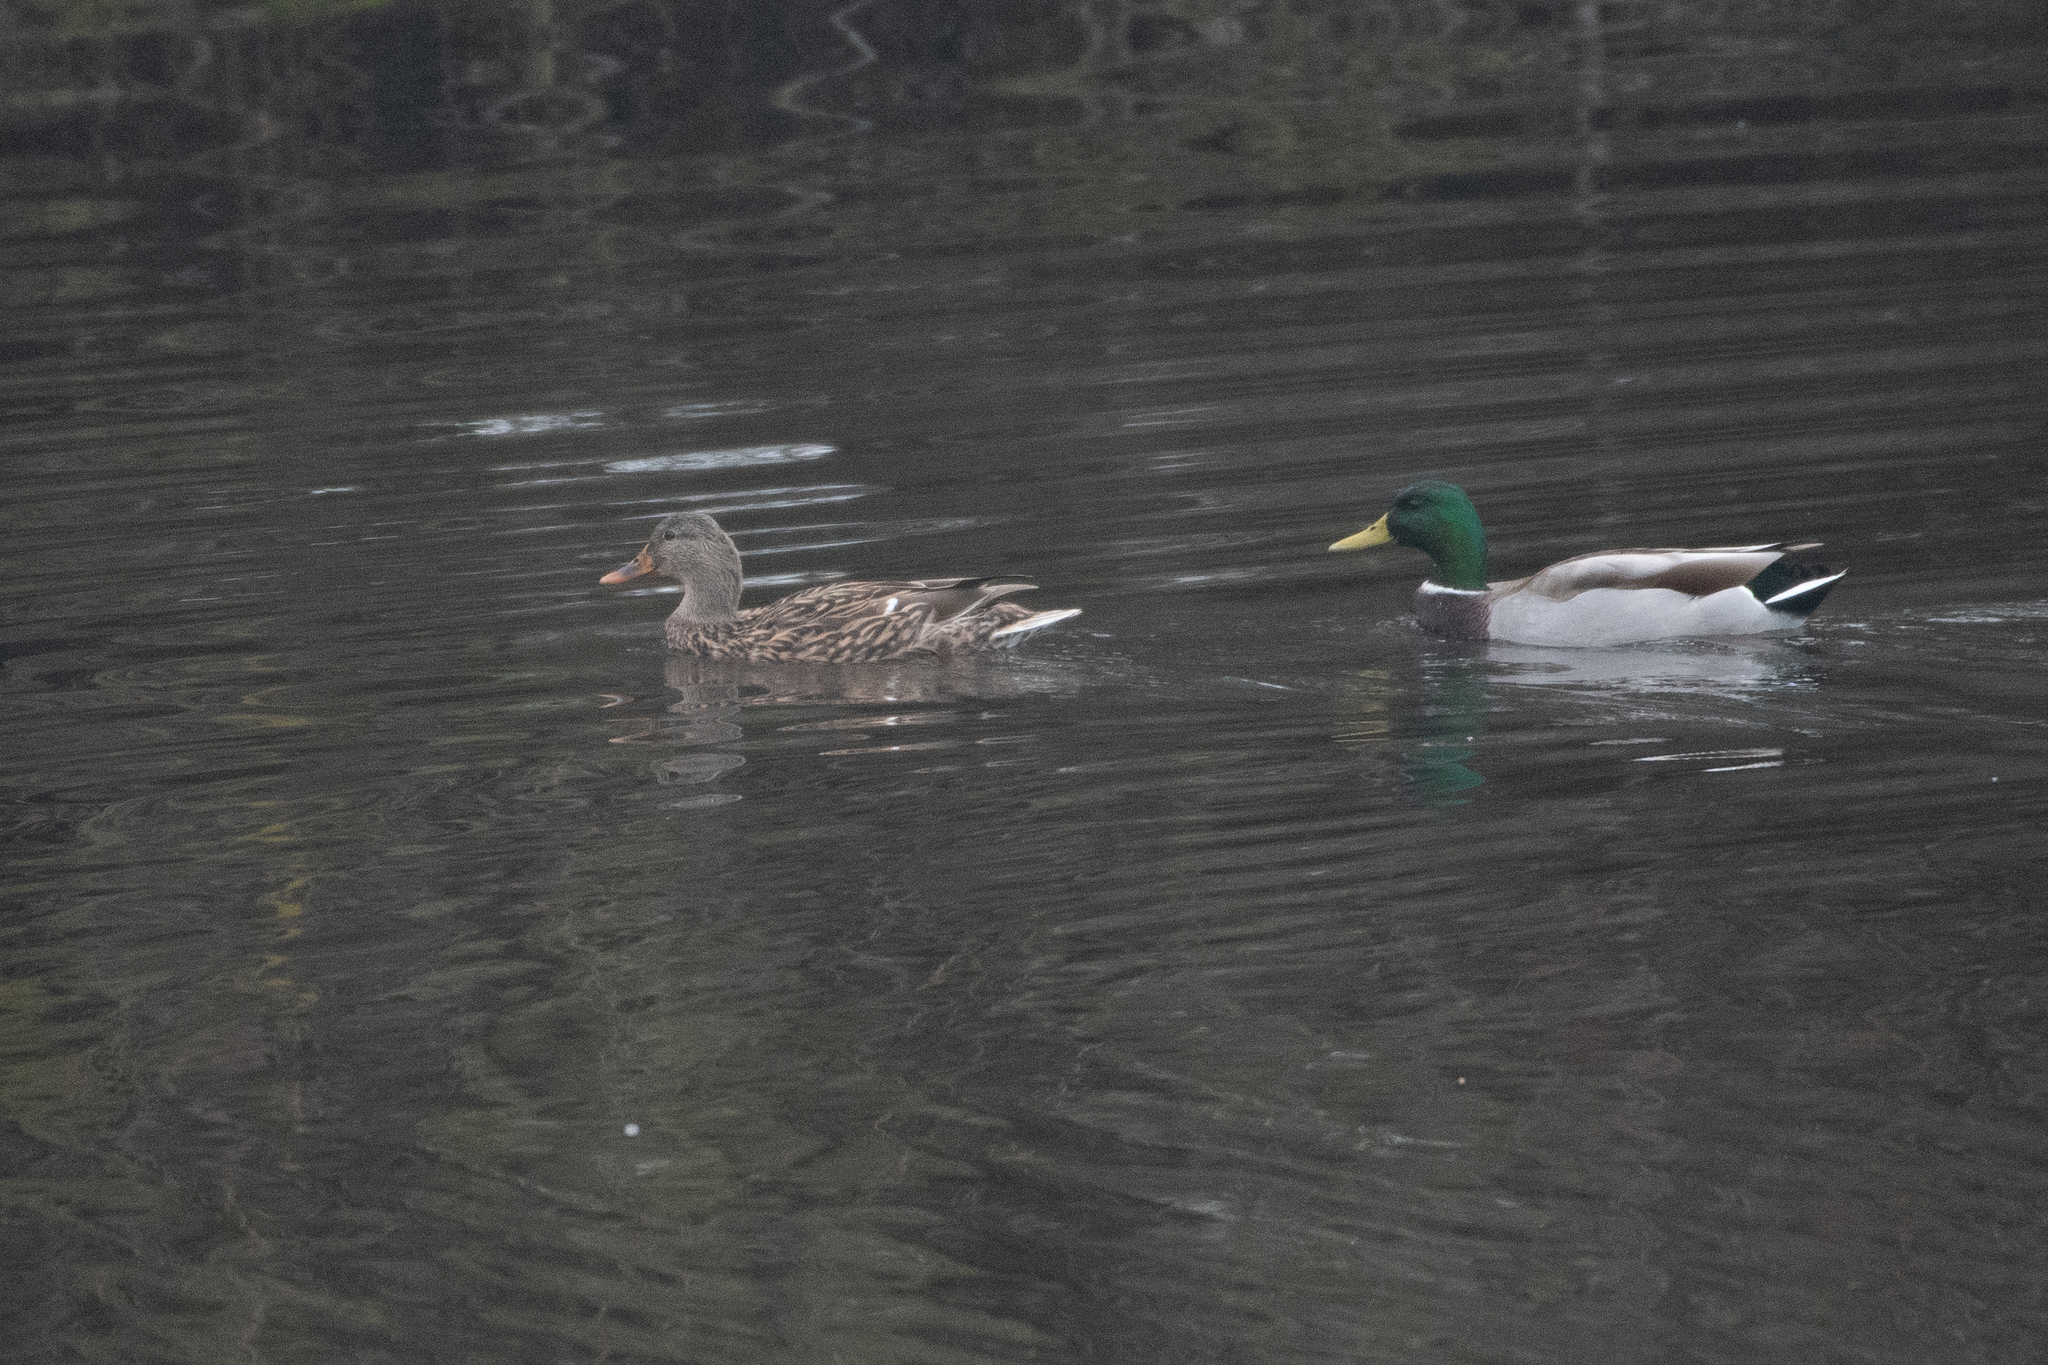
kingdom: Animalia
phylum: Chordata
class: Aves
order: Anseriformes
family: Anatidae
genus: Anas
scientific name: Anas platyrhynchos
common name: Mallard
